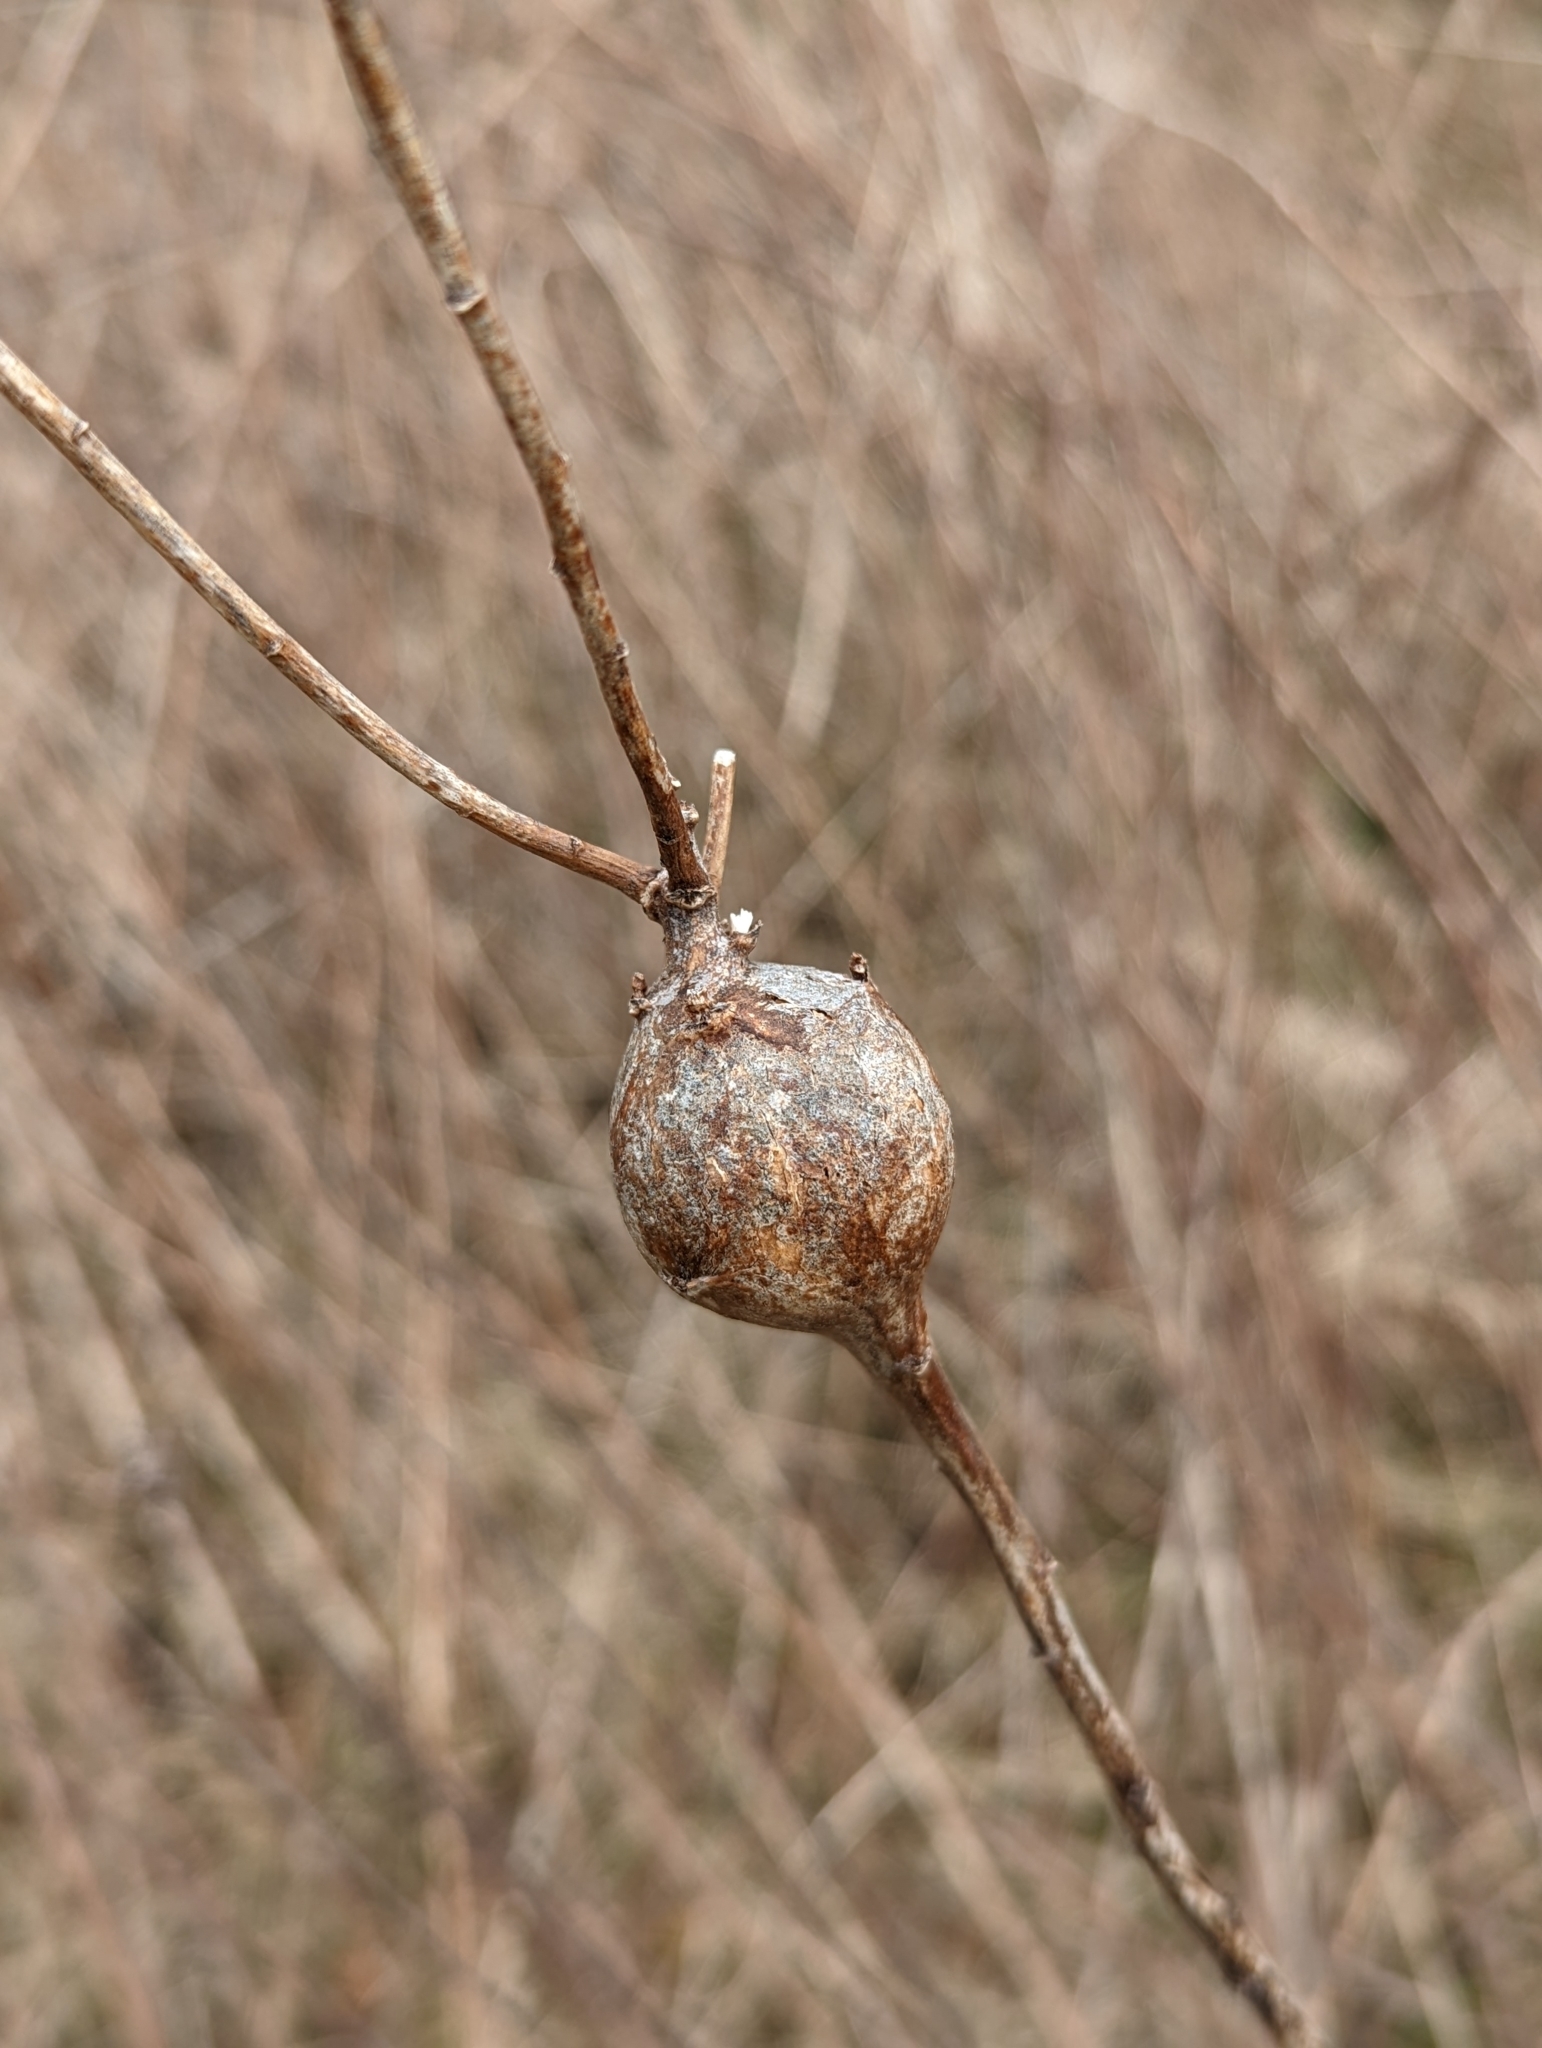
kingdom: Animalia
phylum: Arthropoda
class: Insecta
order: Diptera
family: Tephritidae
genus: Eurosta
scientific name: Eurosta solidaginis
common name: Goldenrod gall fly
